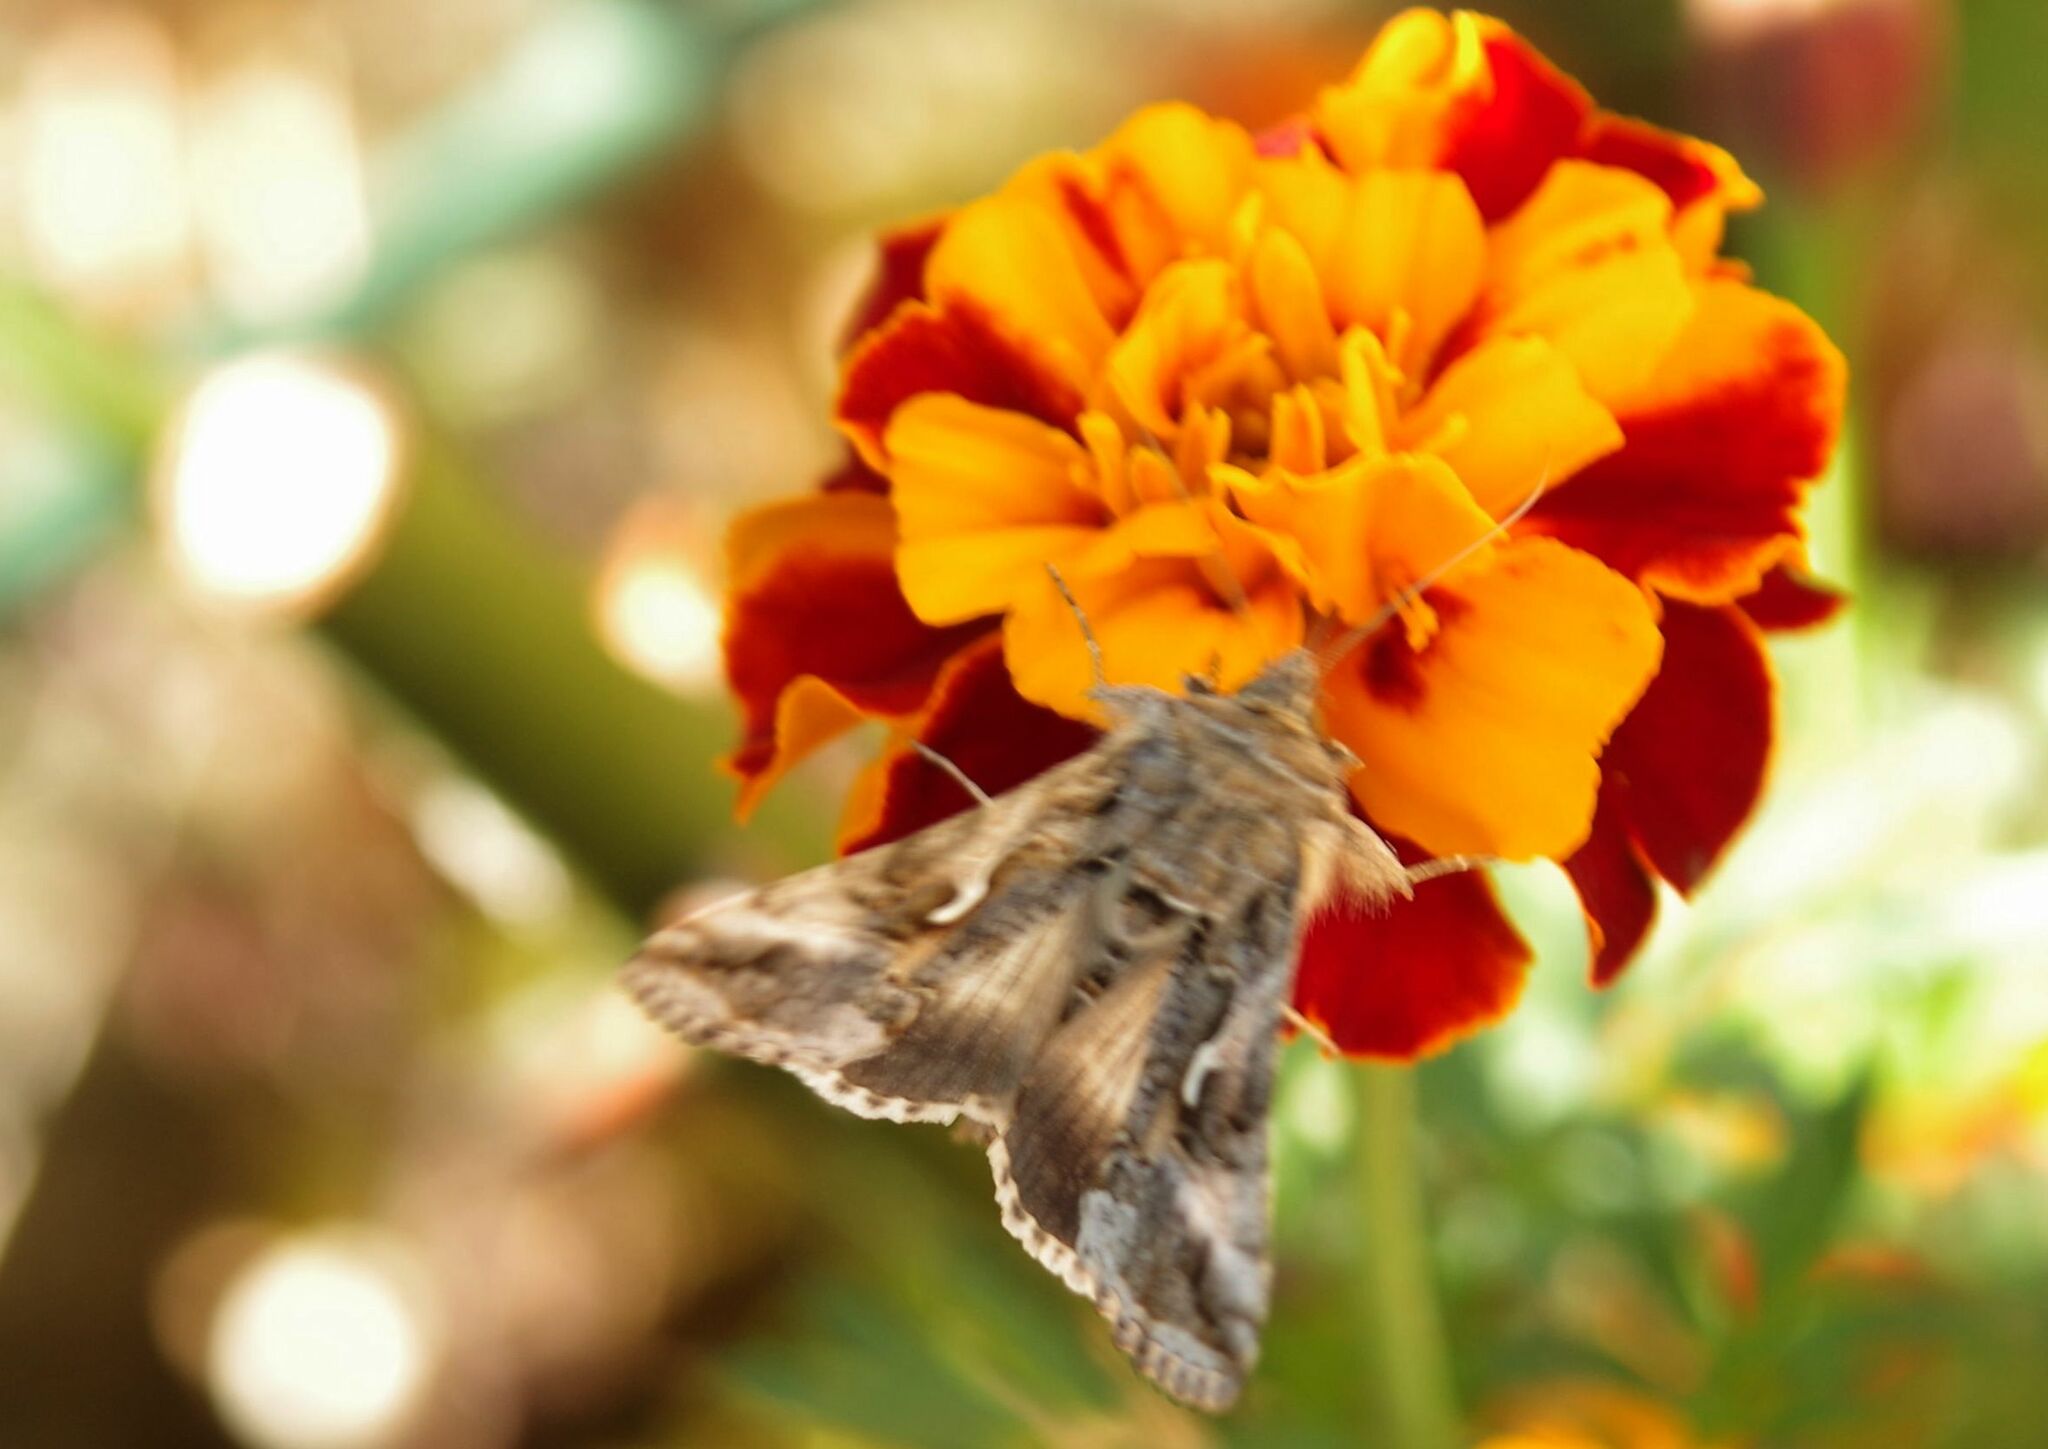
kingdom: Animalia
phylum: Arthropoda
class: Insecta
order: Lepidoptera
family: Noctuidae
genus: Autographa
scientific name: Autographa gamma
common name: Silver y
